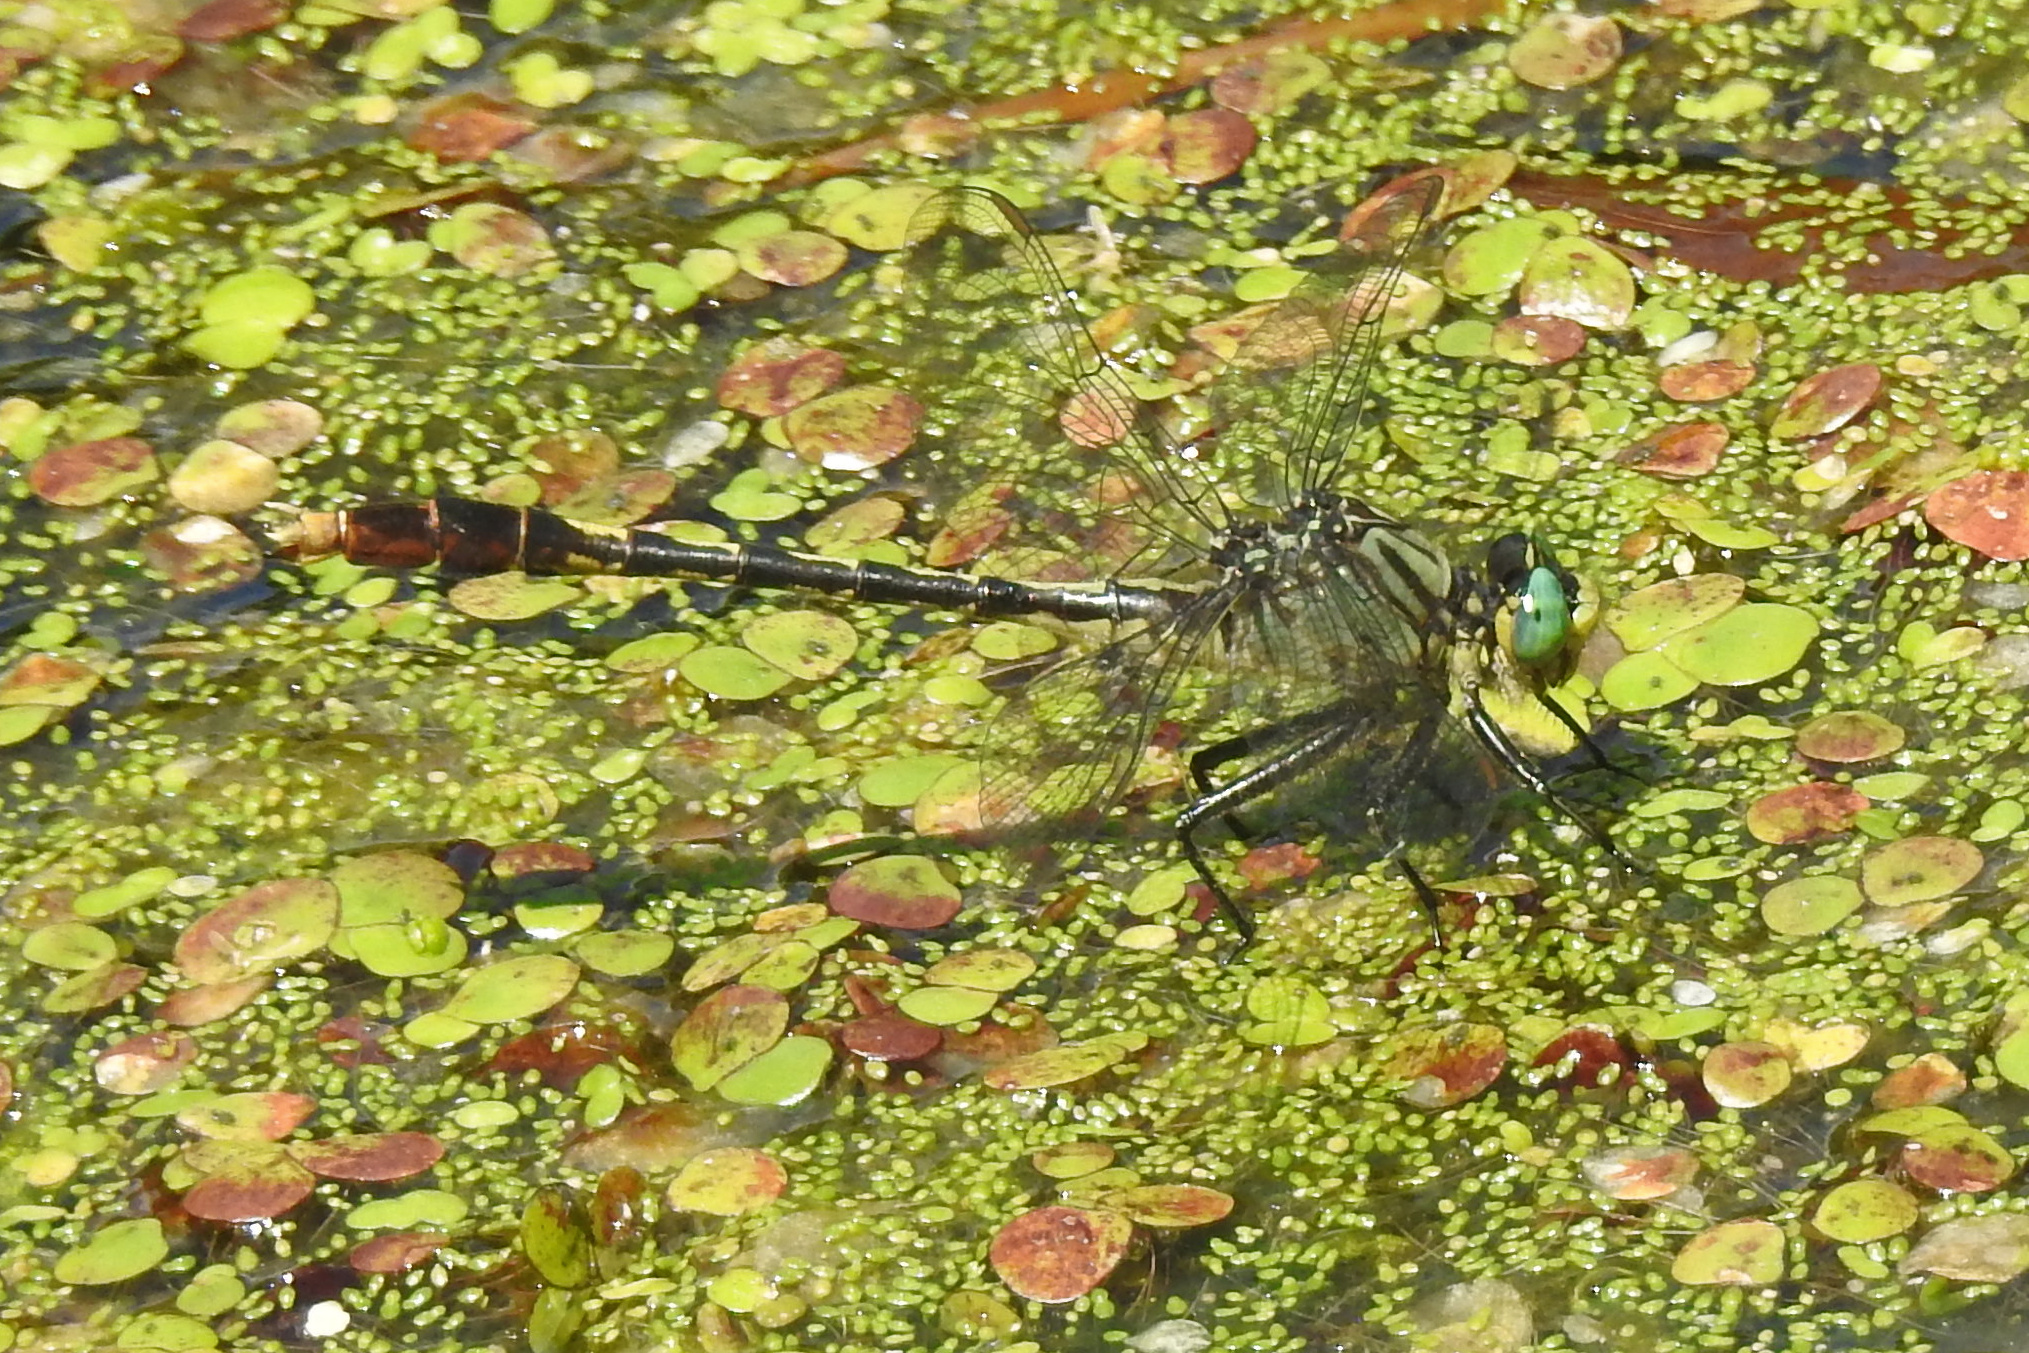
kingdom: Animalia
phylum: Arthropoda
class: Insecta
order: Odonata
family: Gomphidae
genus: Arigomphus
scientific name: Arigomphus villosipes
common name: Unicorn clubtail
